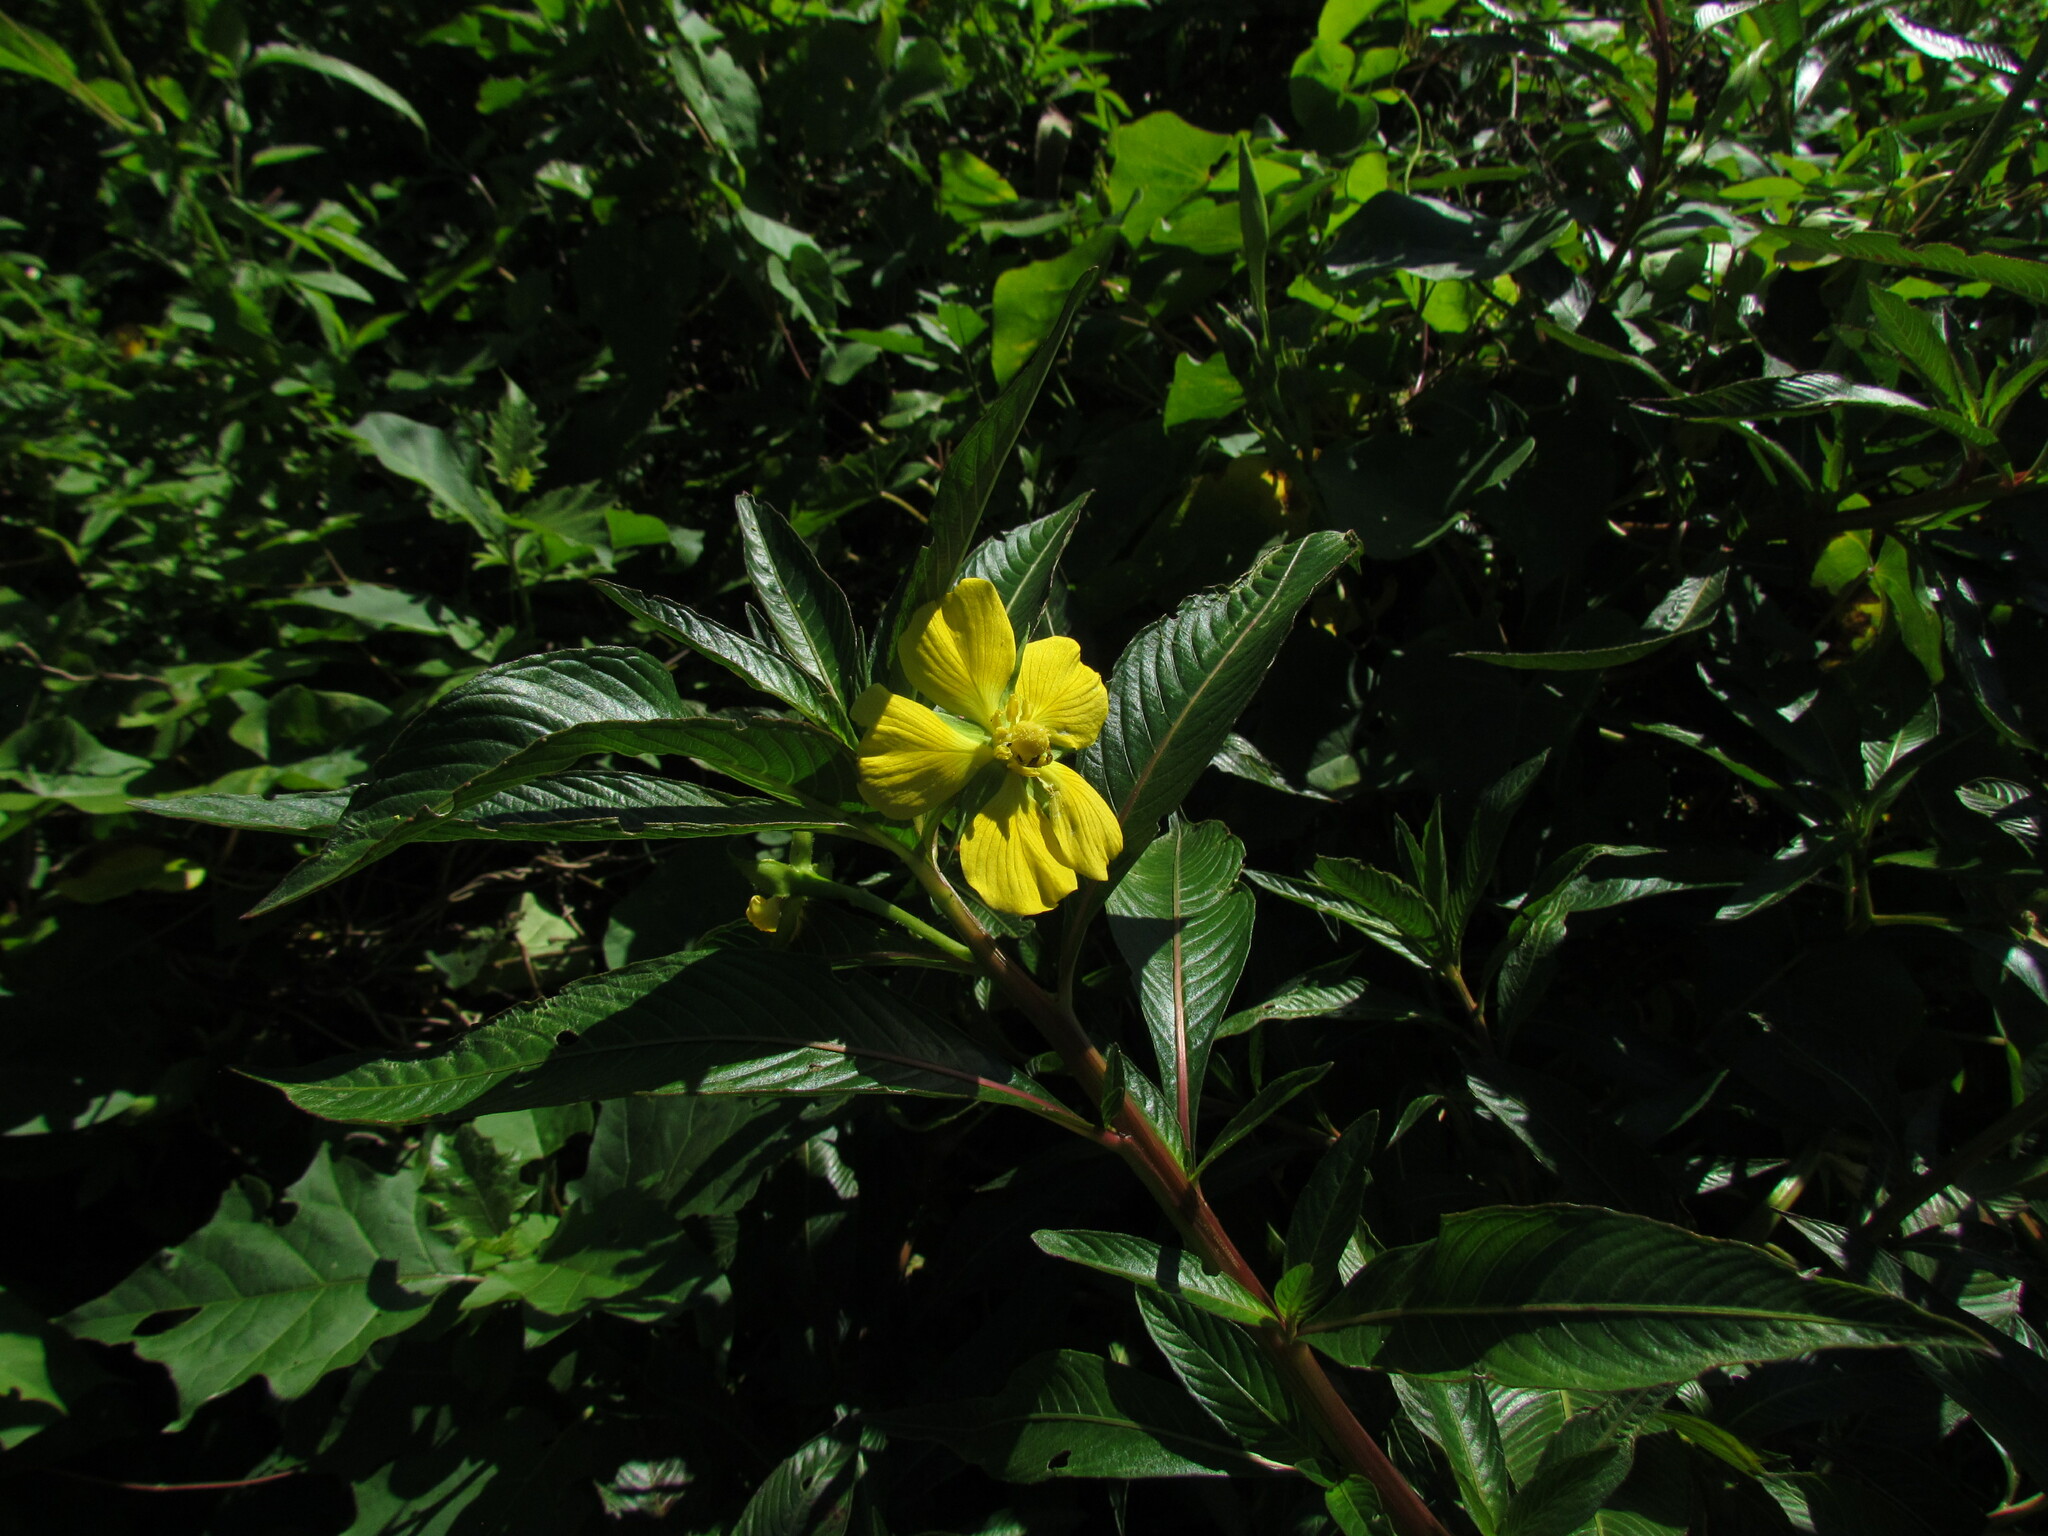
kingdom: Plantae
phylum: Tracheophyta
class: Magnoliopsida
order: Myrtales
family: Onagraceae
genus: Ludwigia
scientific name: Ludwigia elegans
